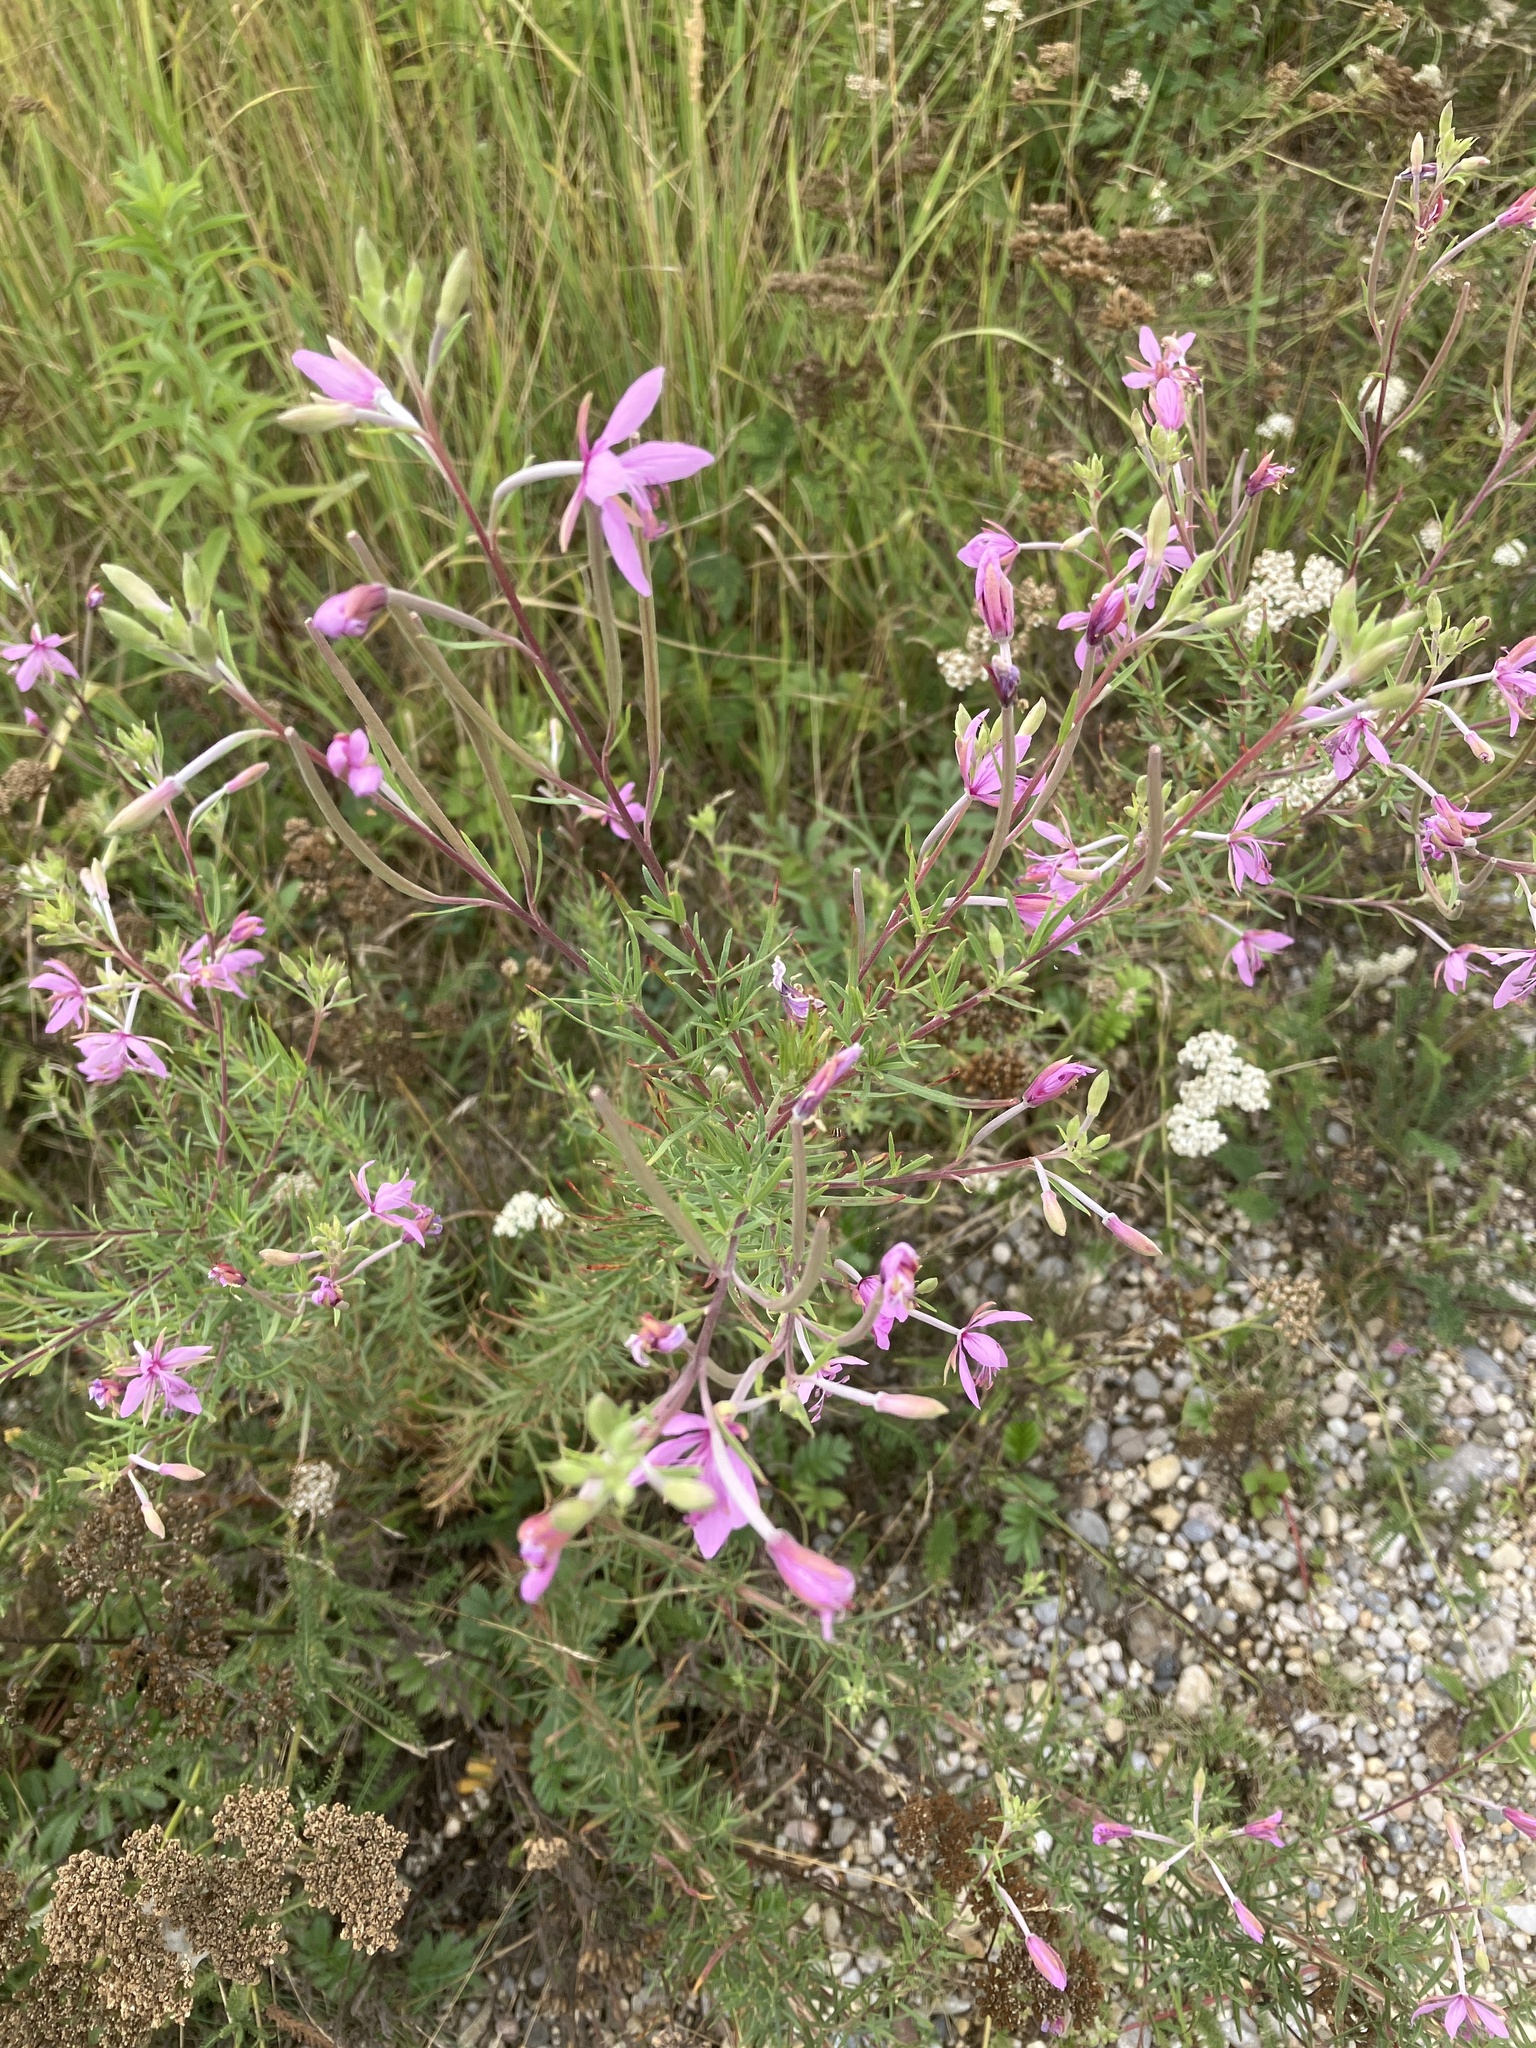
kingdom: Plantae
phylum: Tracheophyta
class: Magnoliopsida
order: Myrtales
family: Onagraceae
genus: Chamaenerion
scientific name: Chamaenerion dodonaei
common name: Rosemary-leaved willowherb
